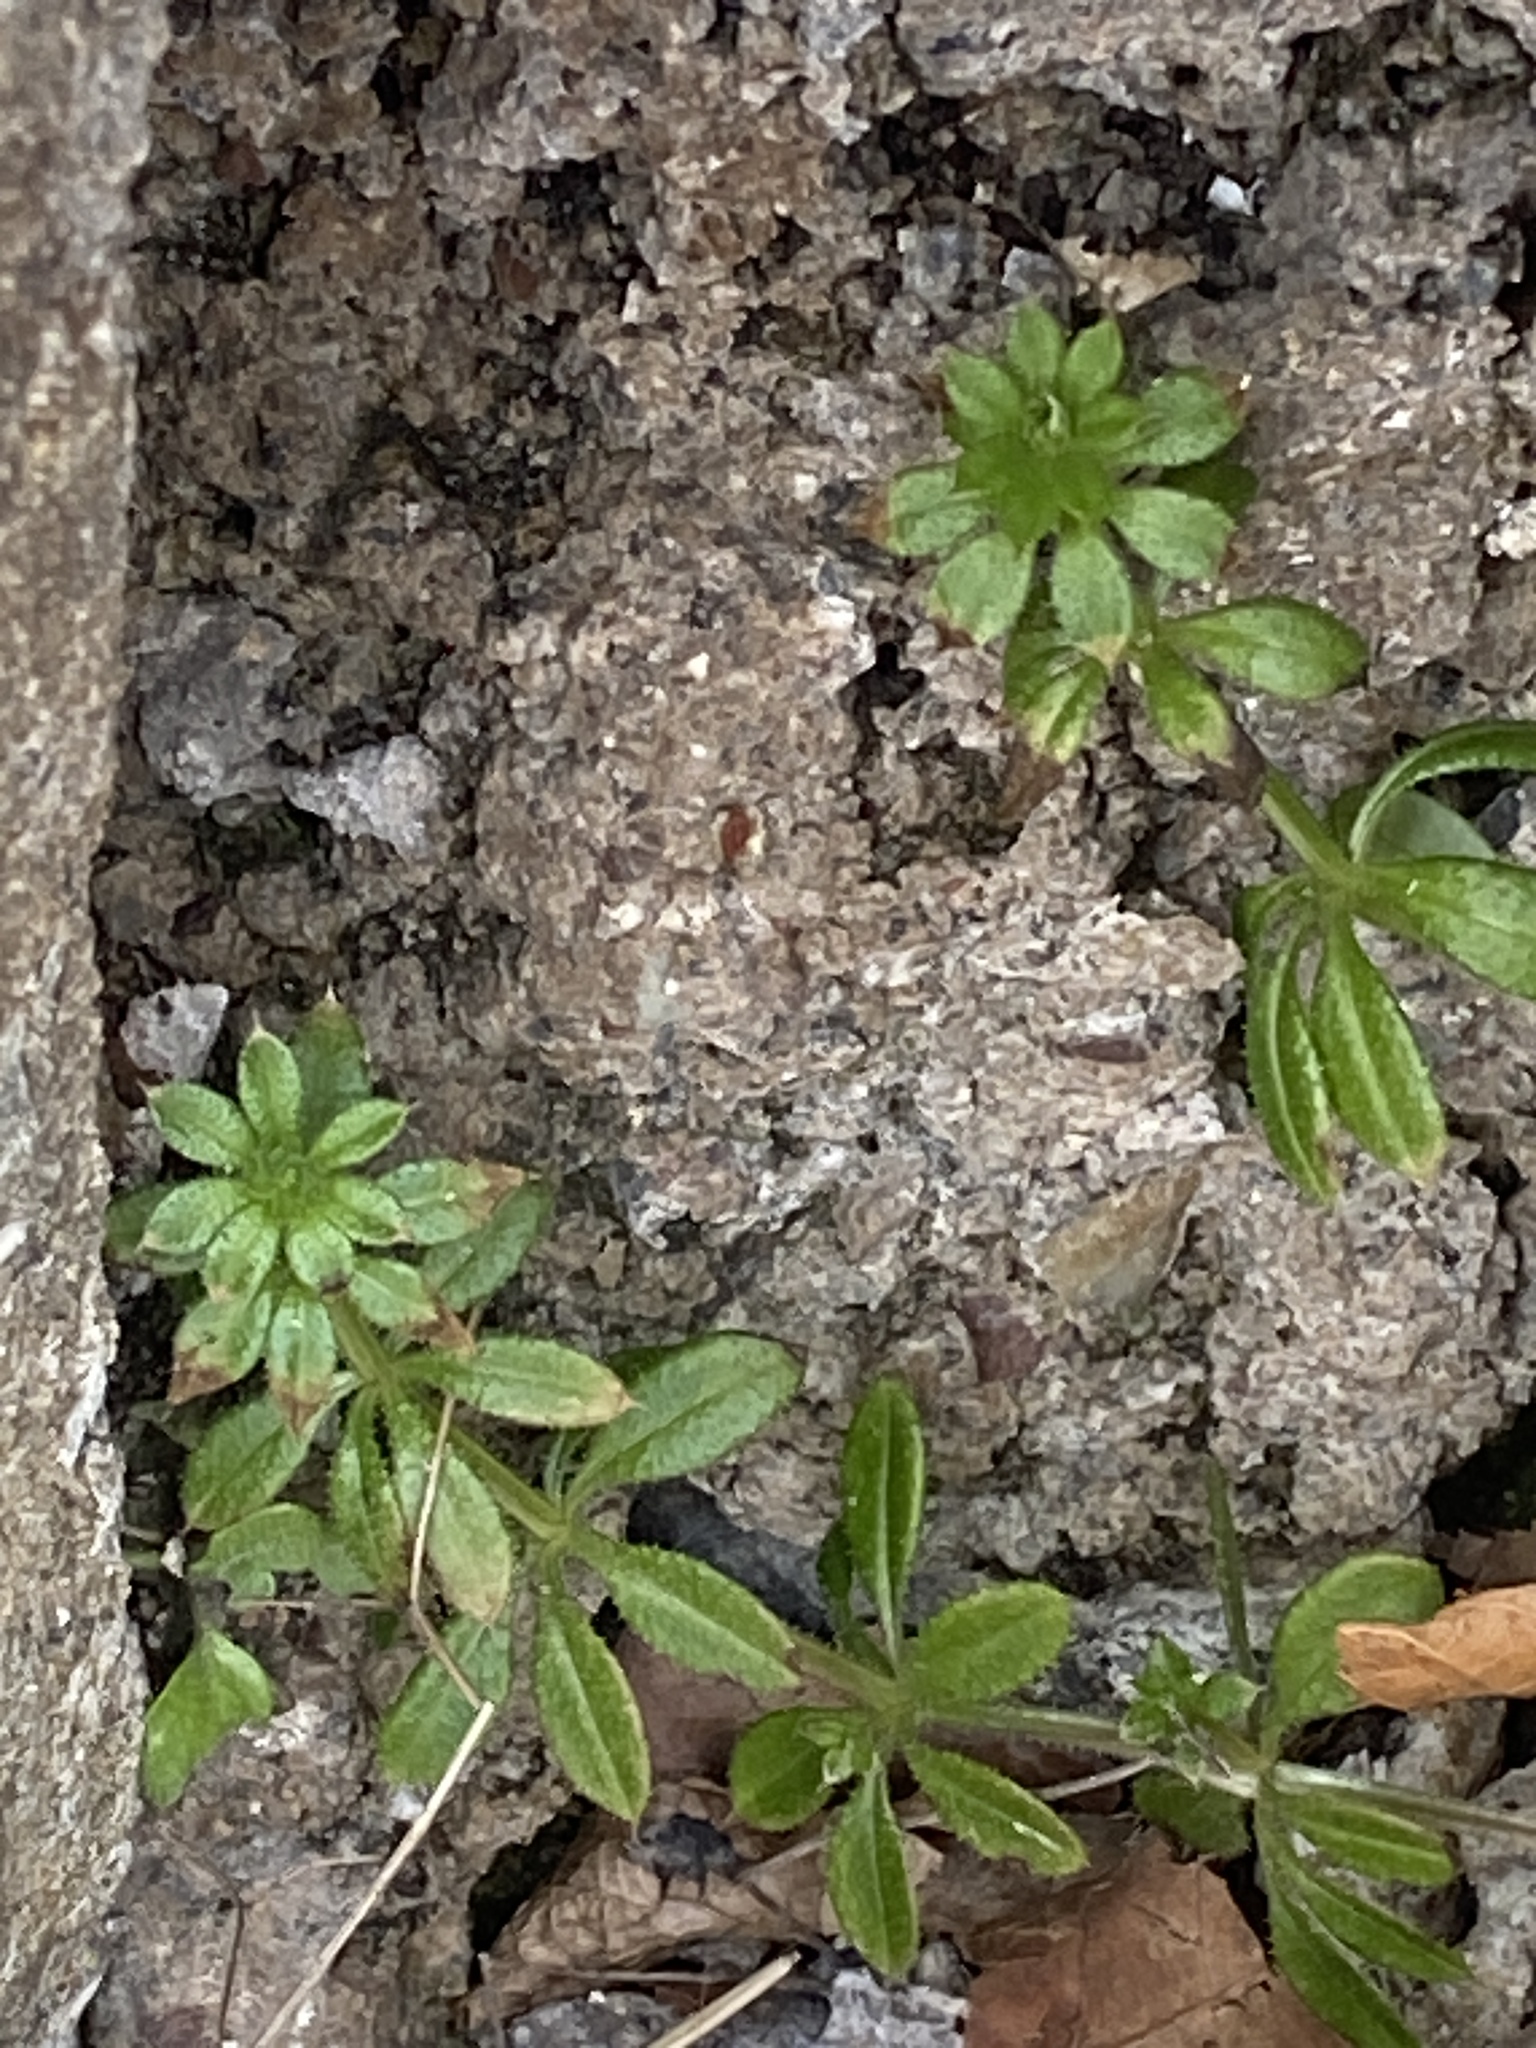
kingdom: Plantae
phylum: Tracheophyta
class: Magnoliopsida
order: Gentianales
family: Rubiaceae
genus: Galium
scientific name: Galium aparine
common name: Cleavers
